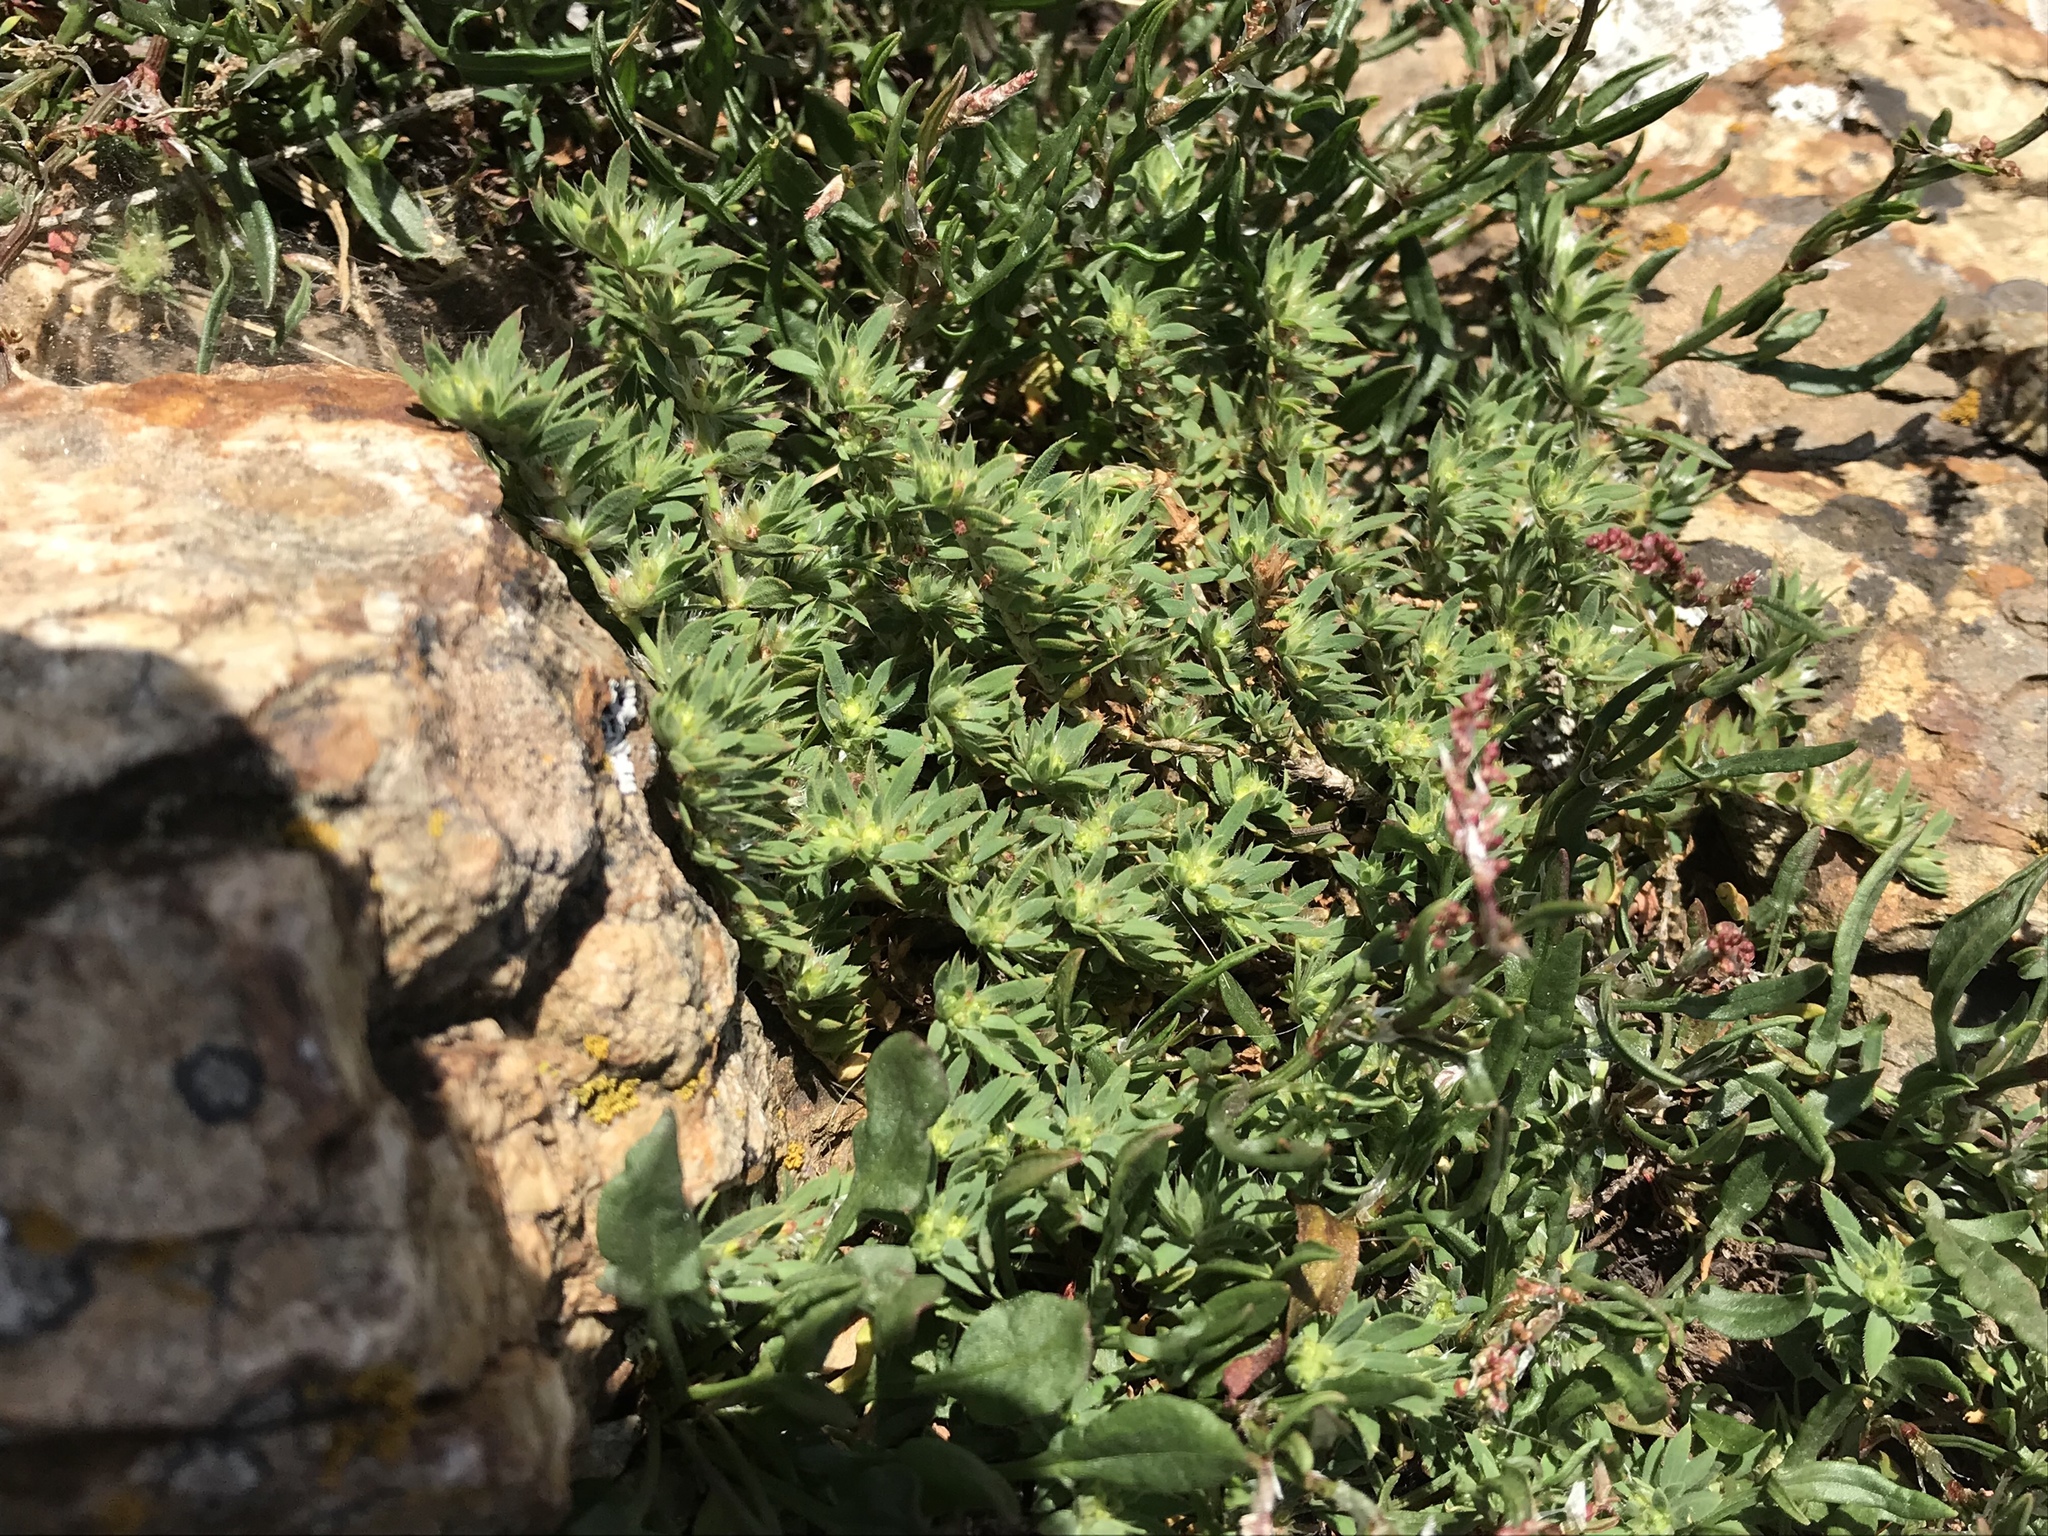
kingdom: Plantae
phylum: Tracheophyta
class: Magnoliopsida
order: Caryophyllales
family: Caryophyllaceae
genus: Cardionema
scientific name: Cardionema ramosissima
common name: Sandcarpet
